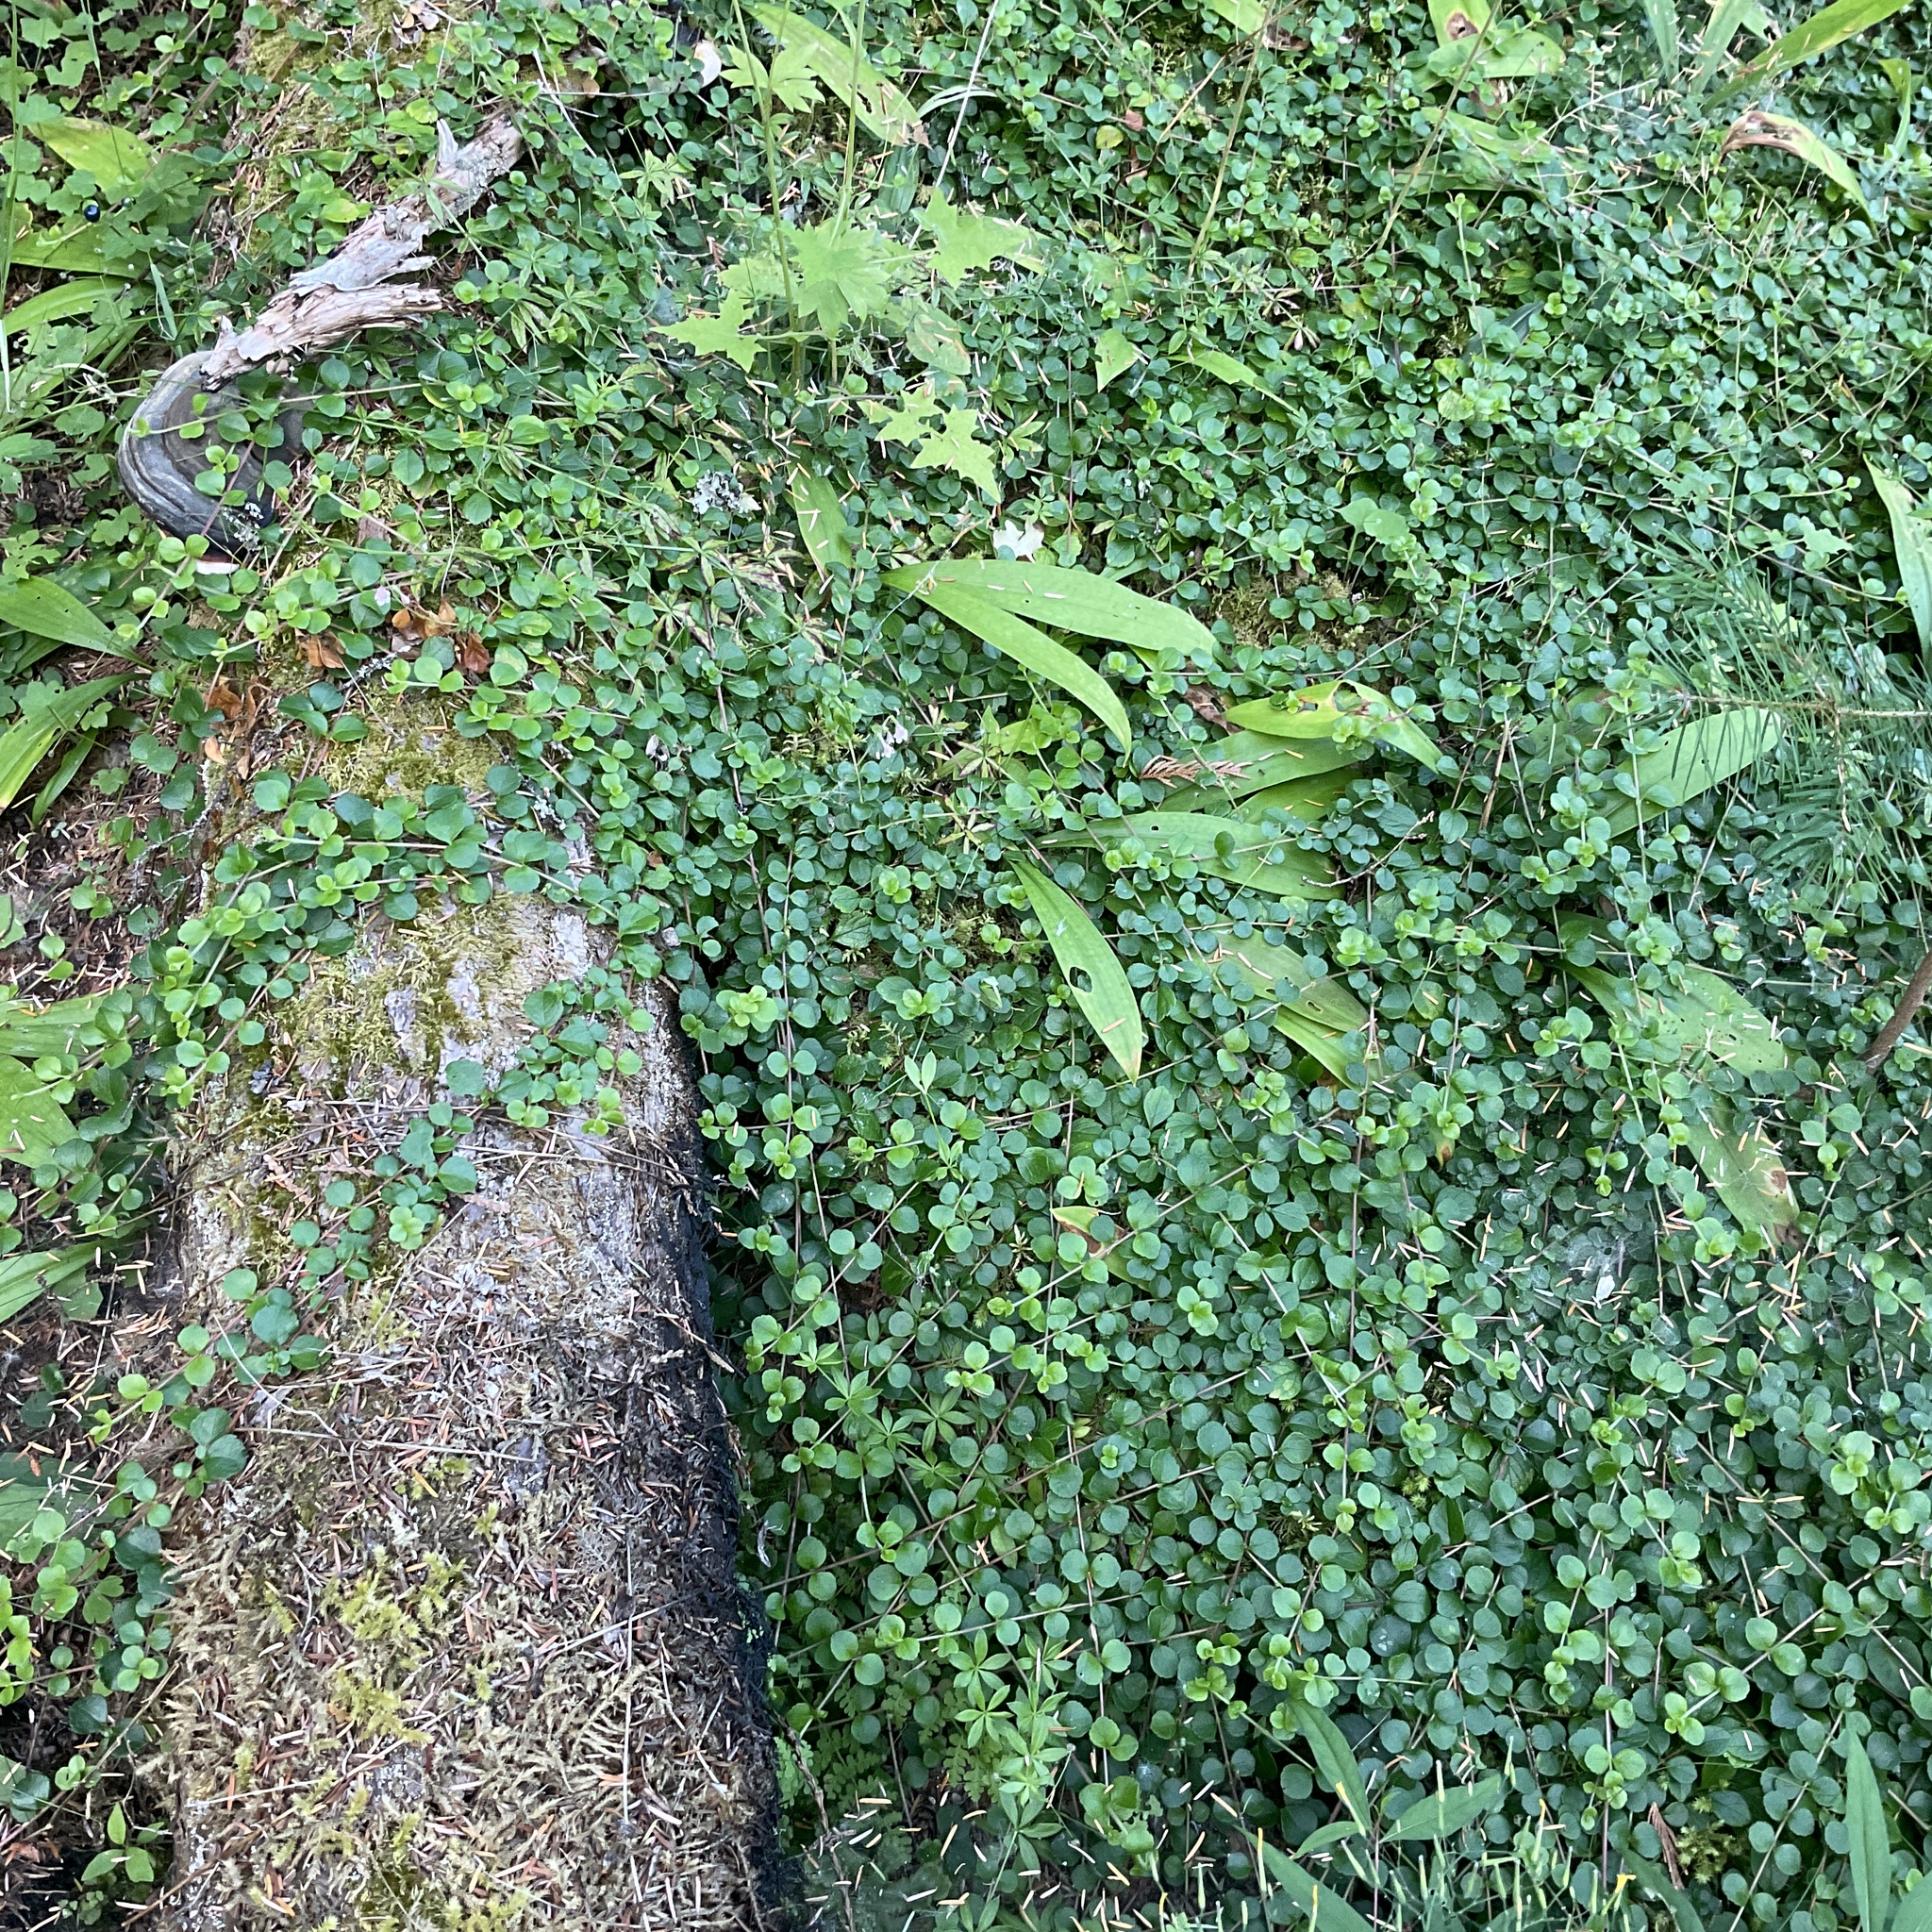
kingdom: Plantae
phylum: Tracheophyta
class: Magnoliopsida
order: Dipsacales
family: Caprifoliaceae
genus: Linnaea
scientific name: Linnaea borealis
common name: Twinflower
